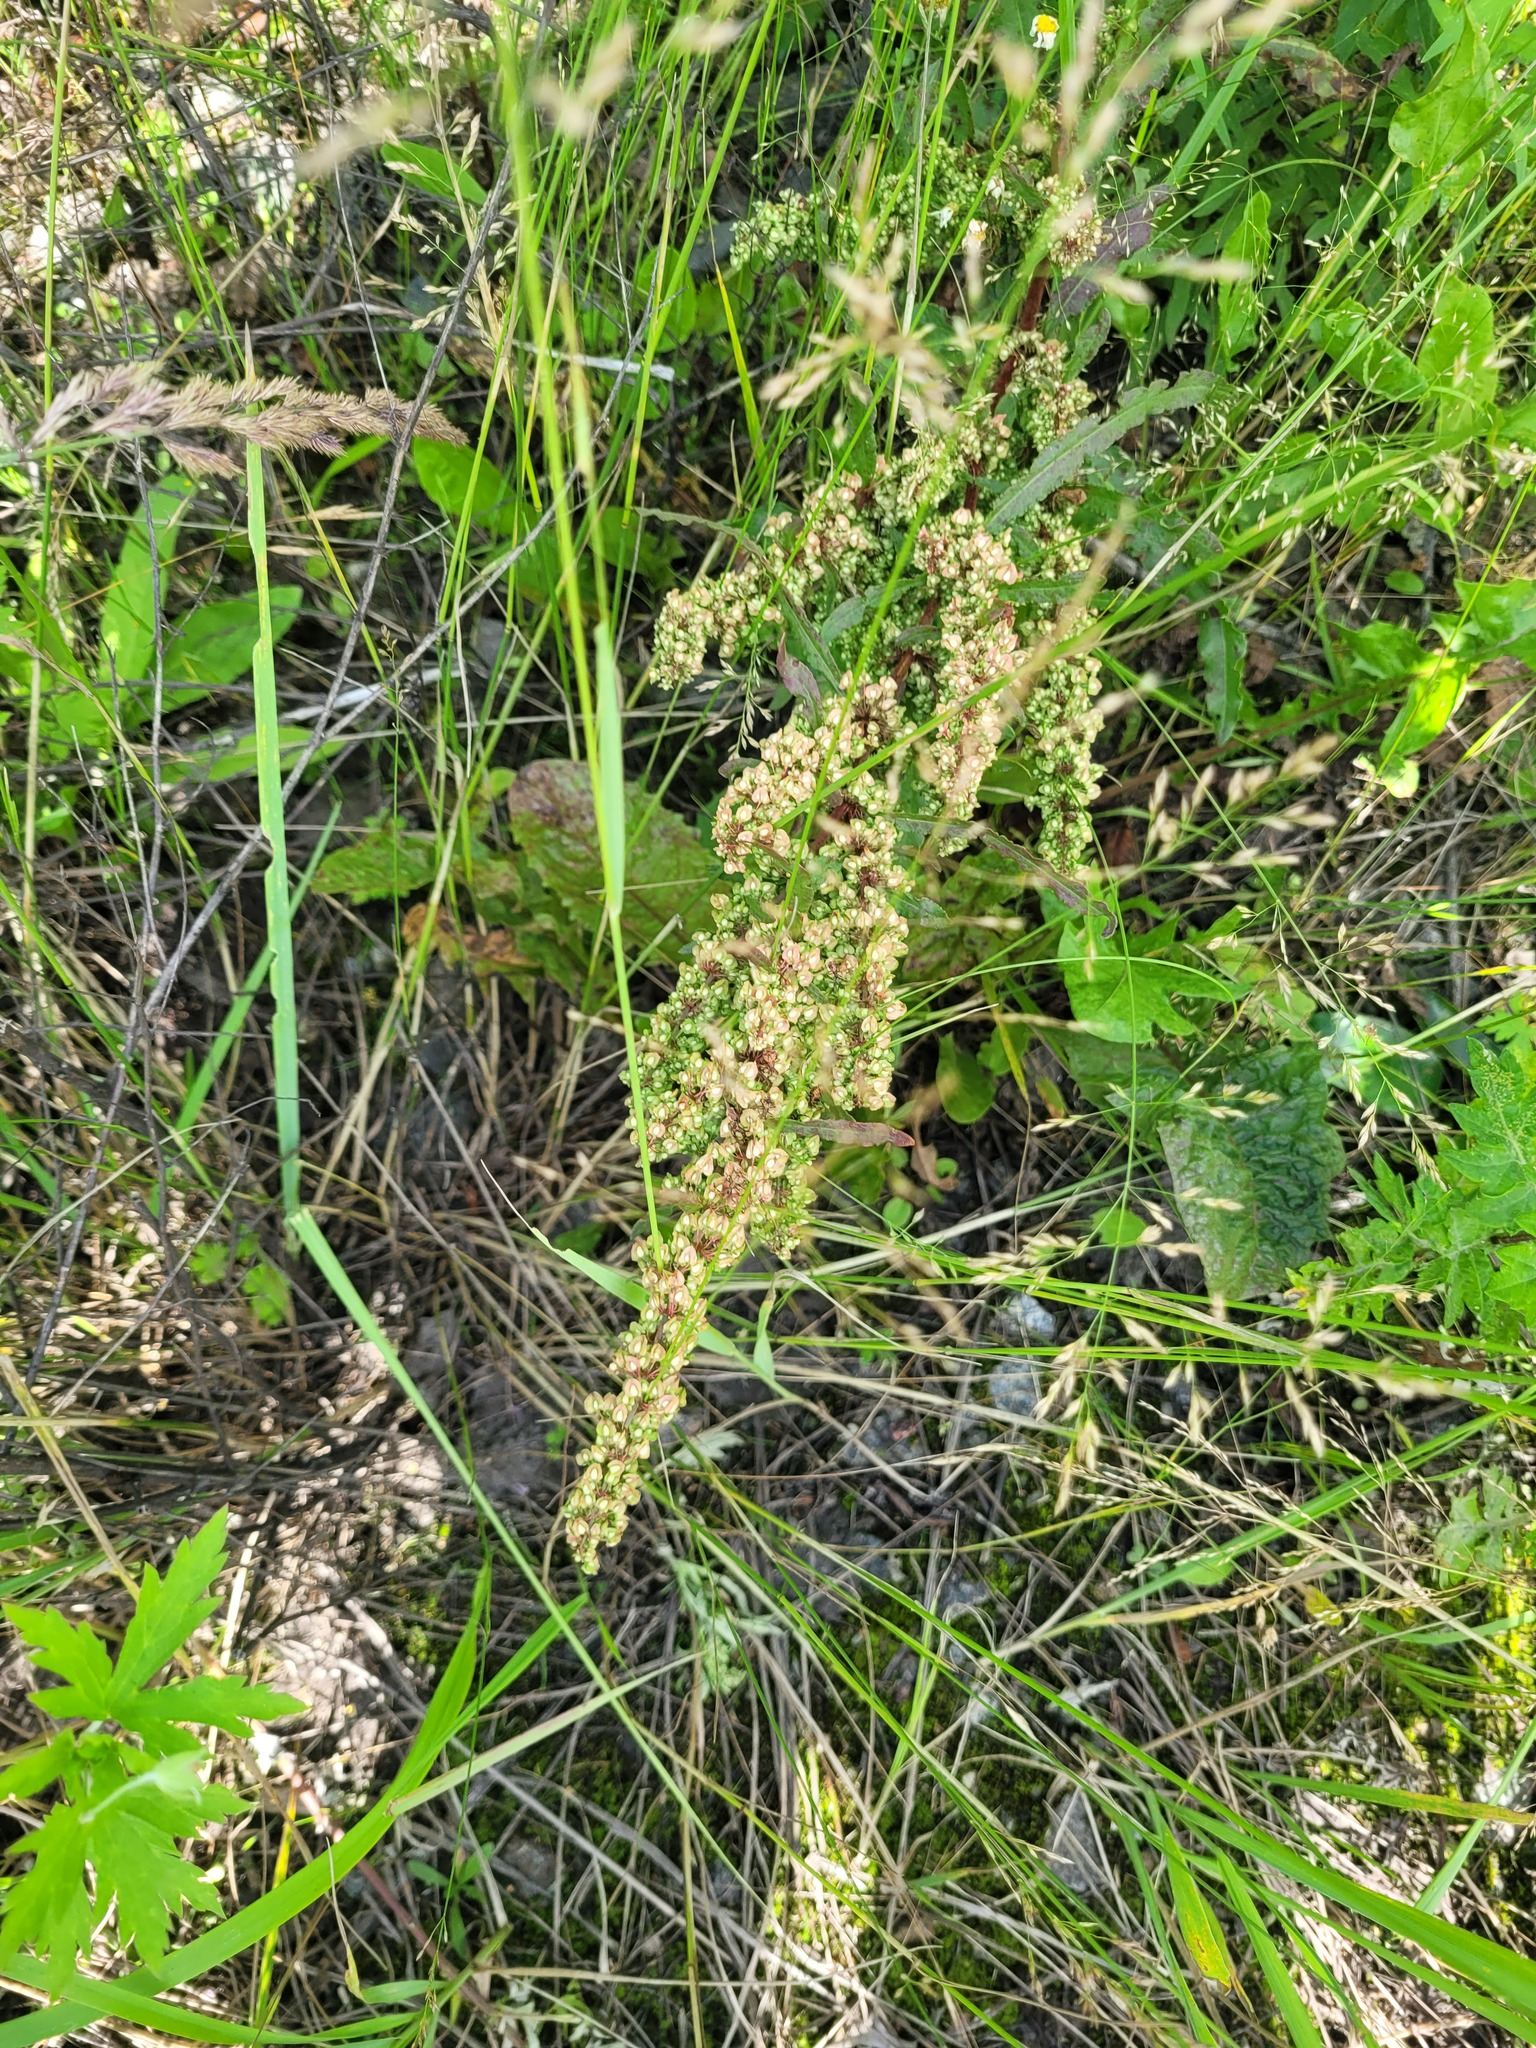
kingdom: Plantae
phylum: Tracheophyta
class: Magnoliopsida
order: Caryophyllales
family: Polygonaceae
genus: Rumex
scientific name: Rumex crispus
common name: Curled dock
